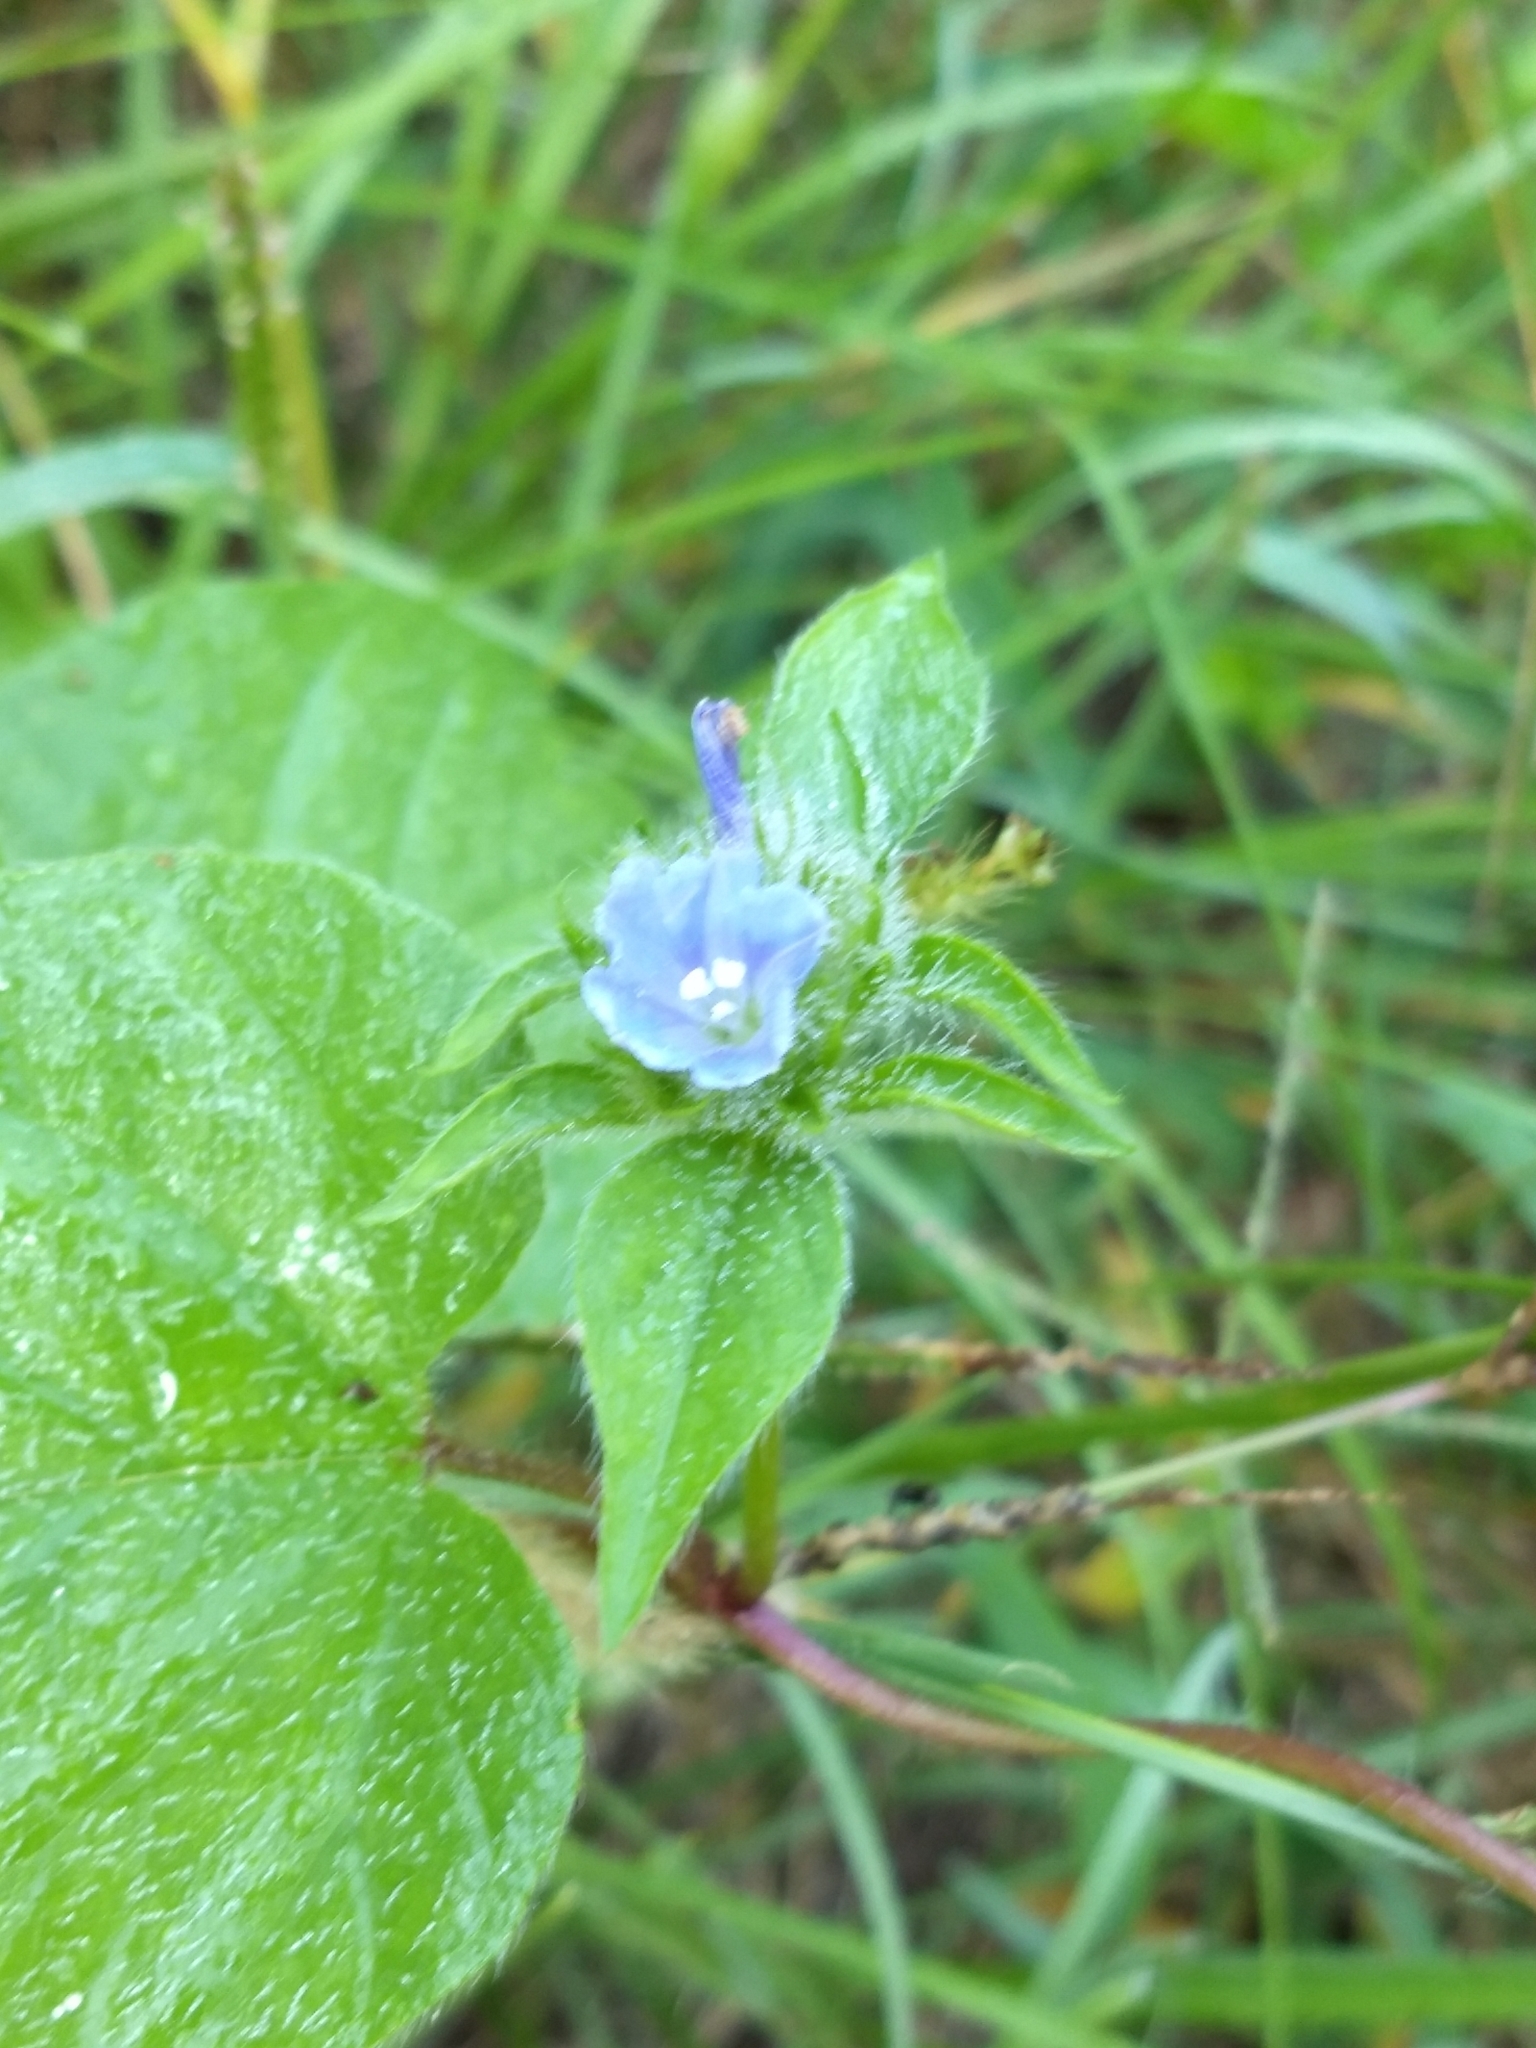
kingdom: Plantae
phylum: Tracheophyta
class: Magnoliopsida
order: Solanales
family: Convolvulaceae
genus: Jacquemontia
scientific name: Jacquemontia tamnifolia
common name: Hairy clustervine
